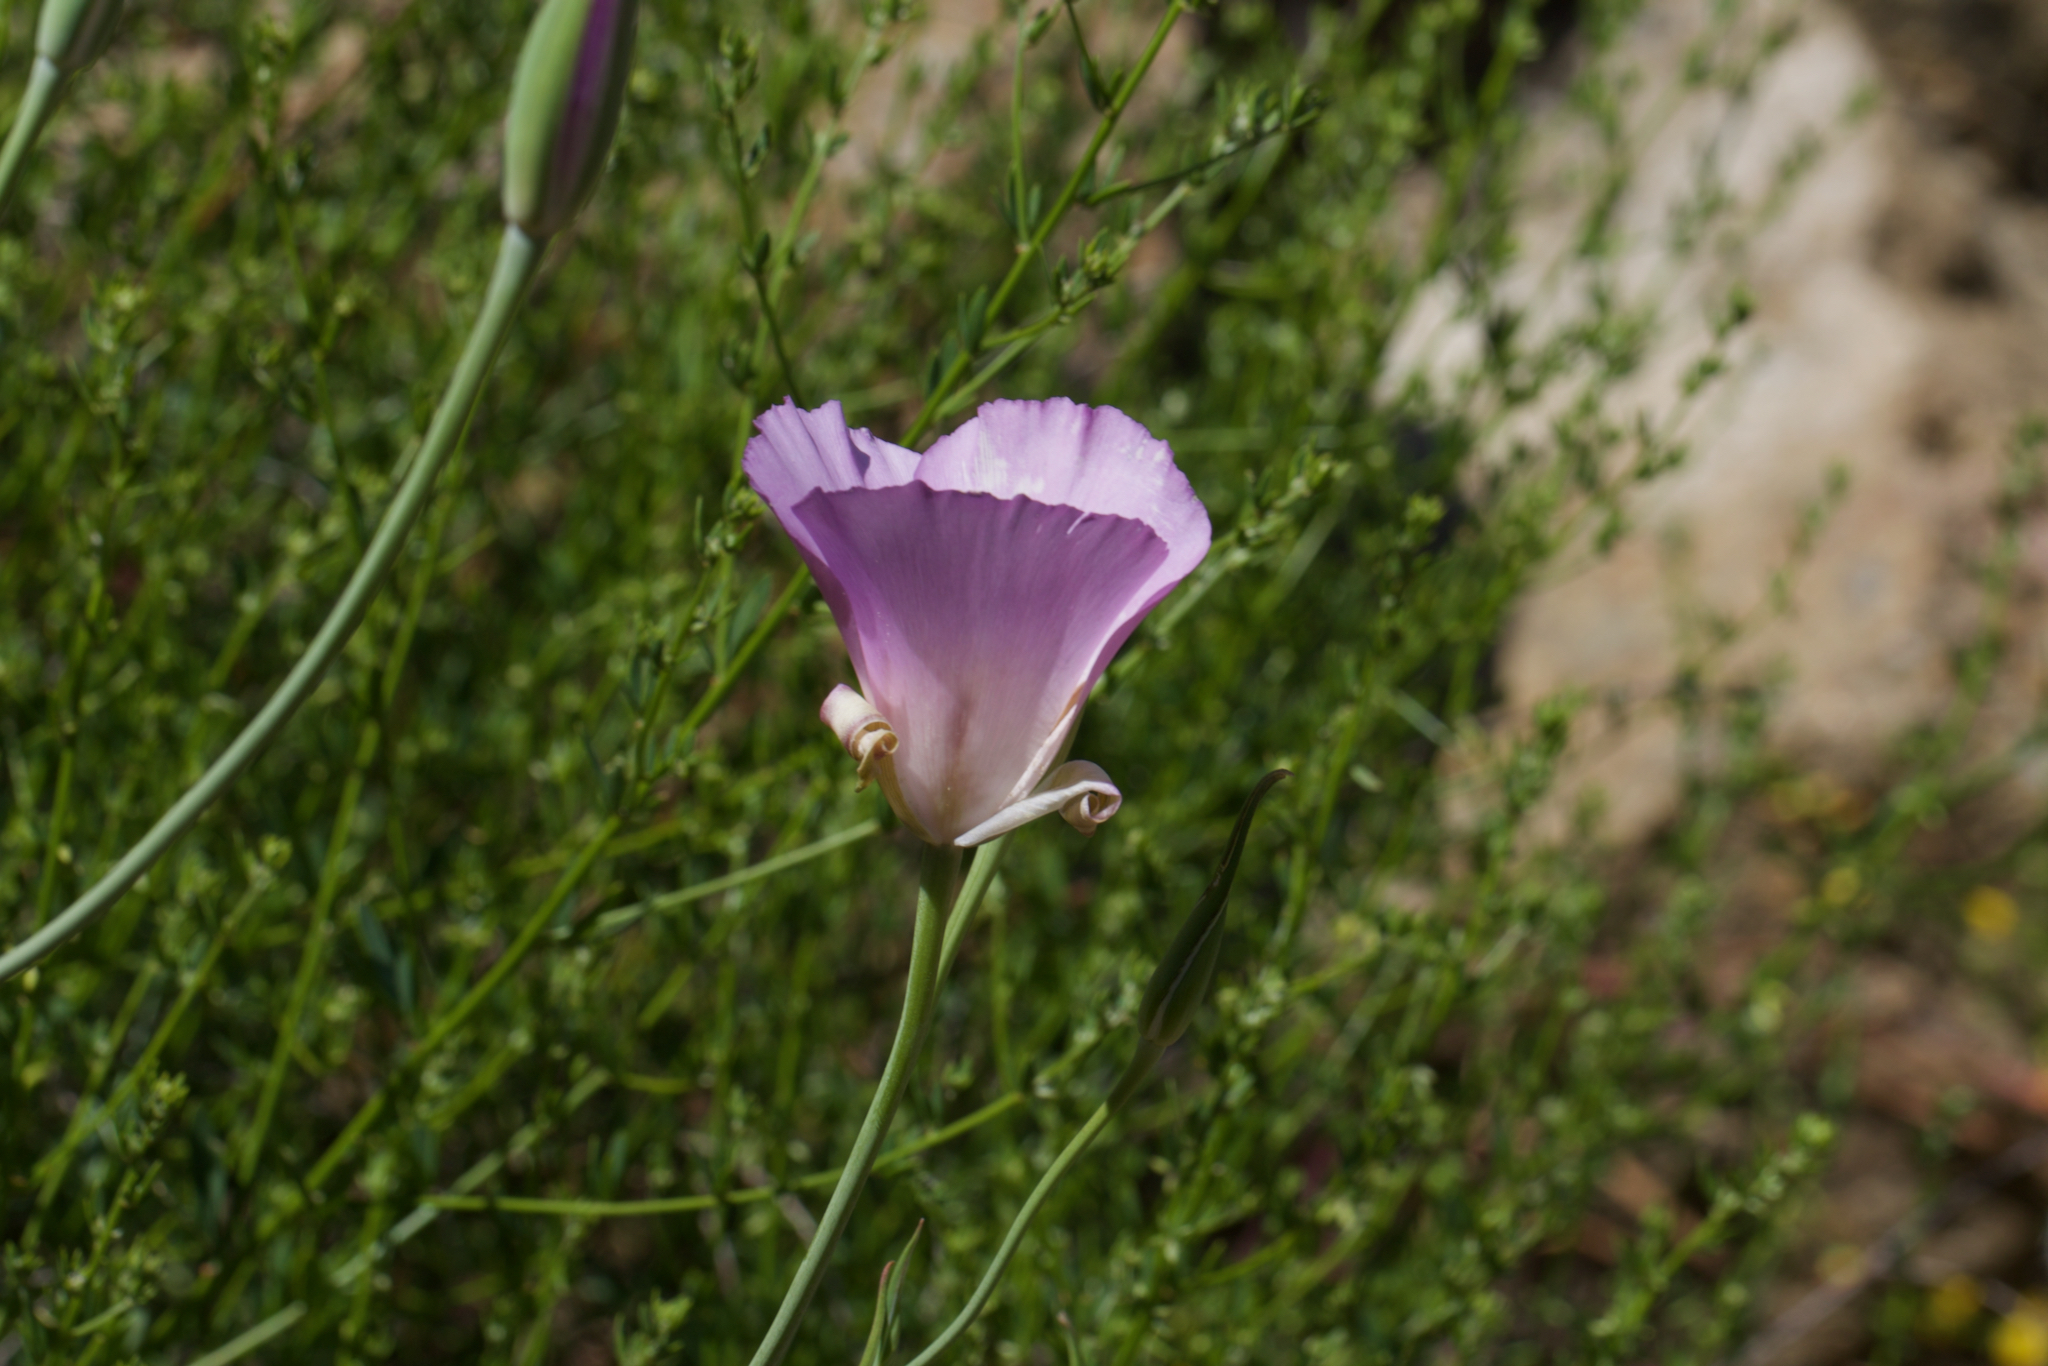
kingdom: Plantae
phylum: Tracheophyta
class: Liliopsida
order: Liliales
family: Liliaceae
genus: Calochortus
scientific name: Calochortus splendens
